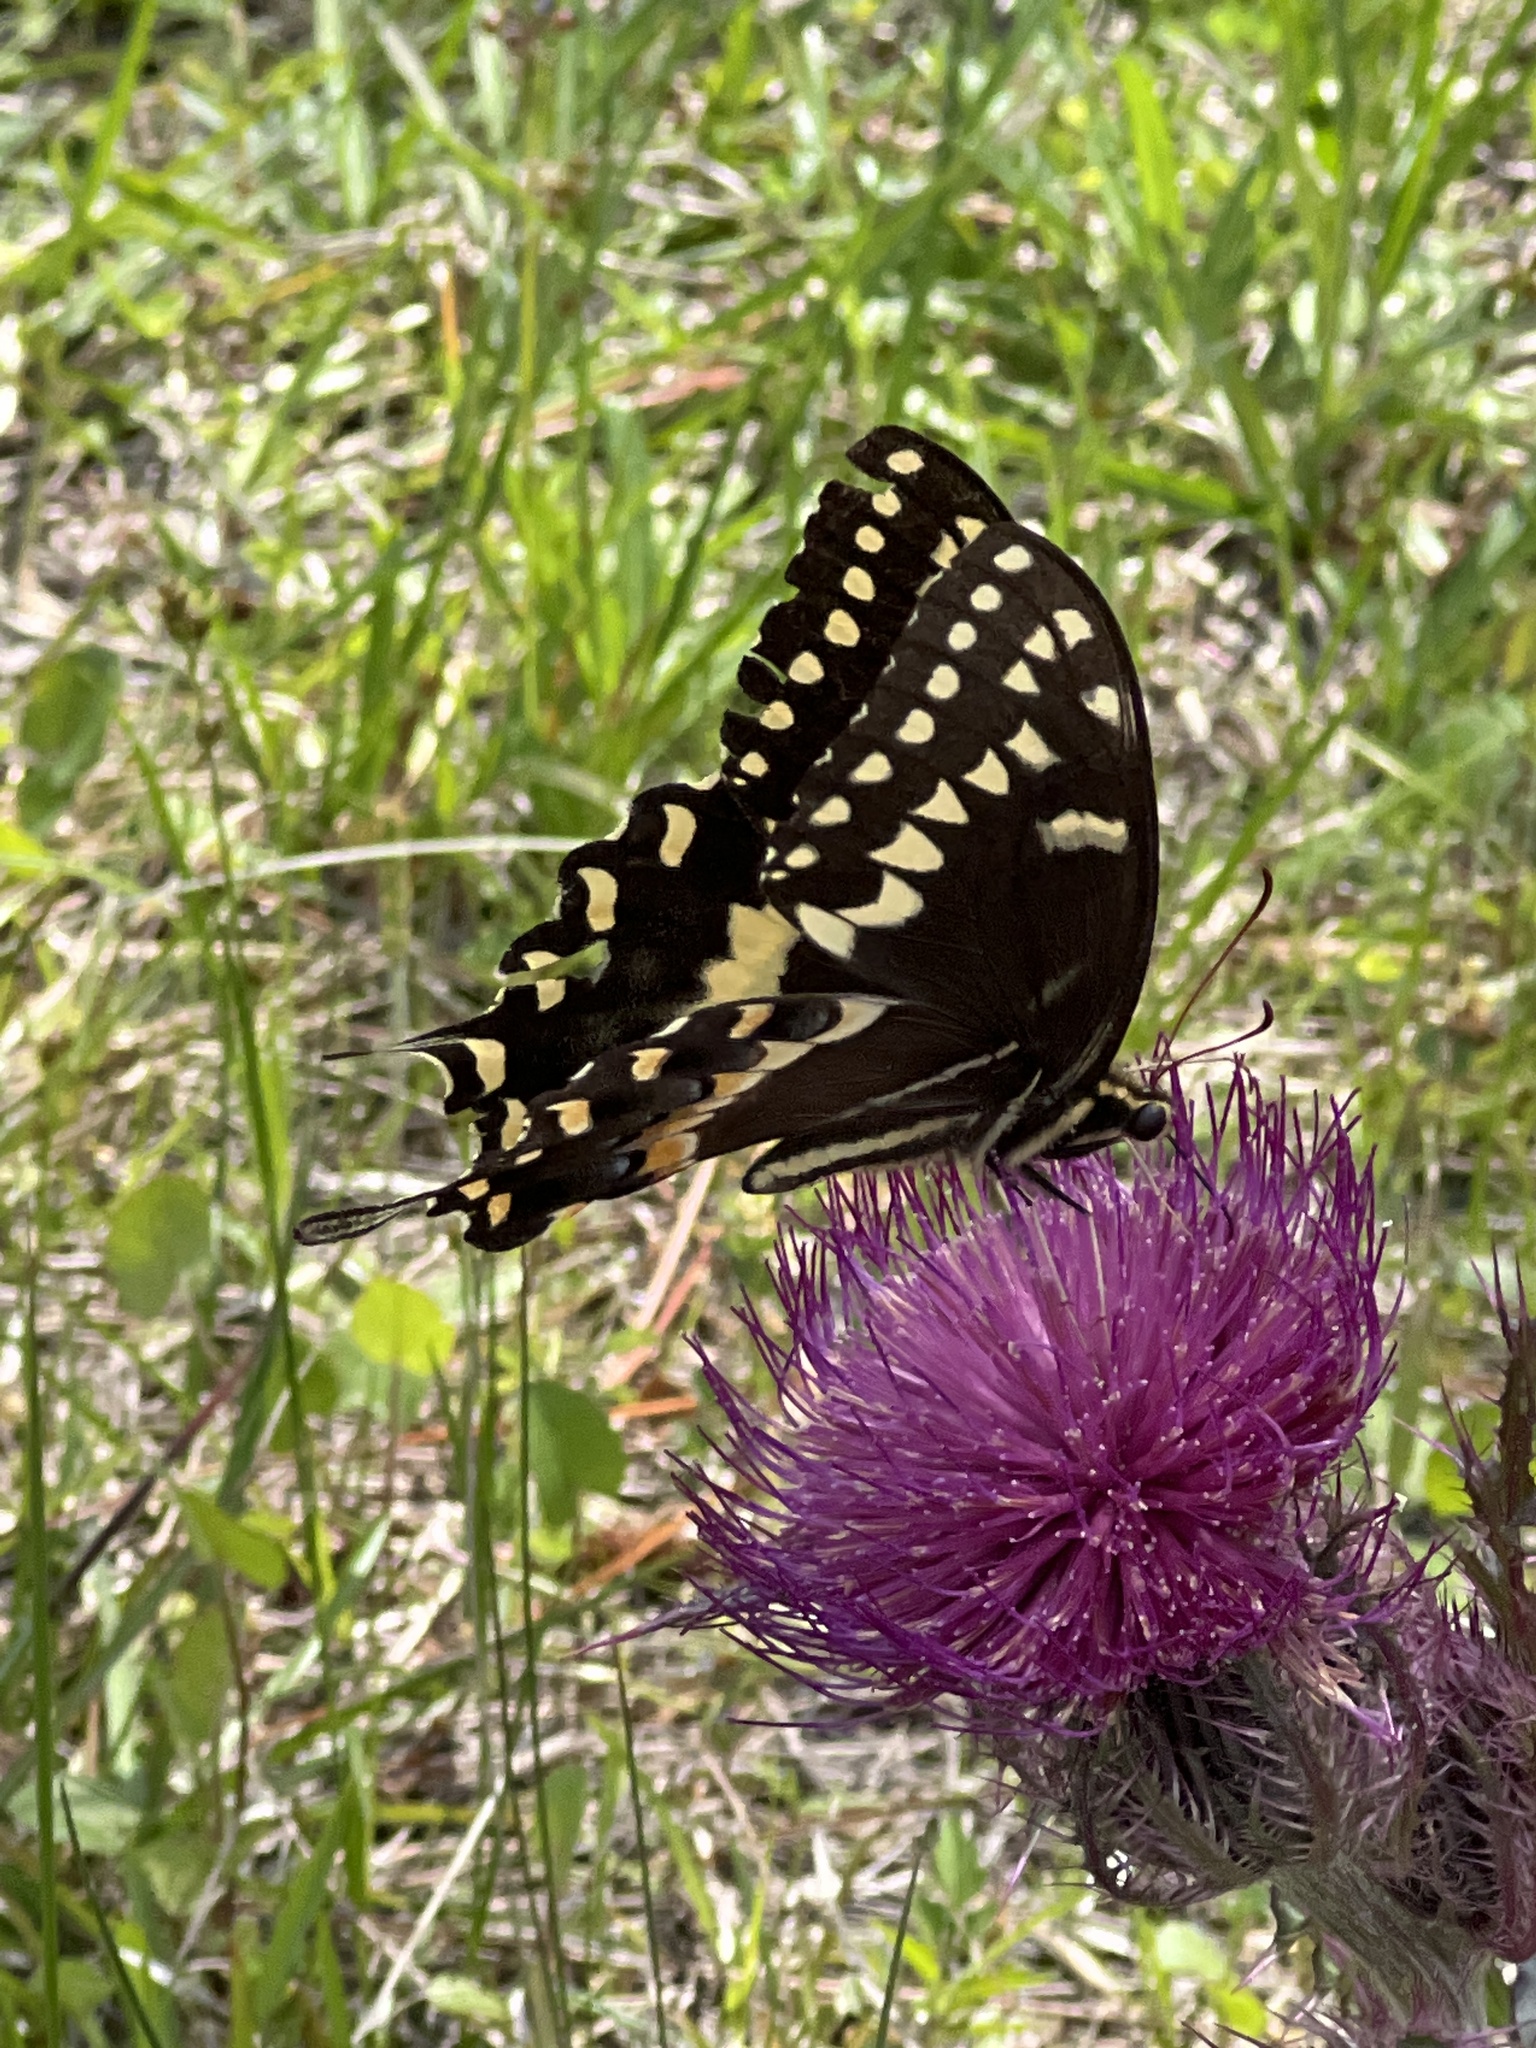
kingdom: Animalia
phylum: Arthropoda
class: Insecta
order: Lepidoptera
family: Papilionidae
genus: Papilio
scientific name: Papilio palamedes
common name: Palamedes swallowtail
